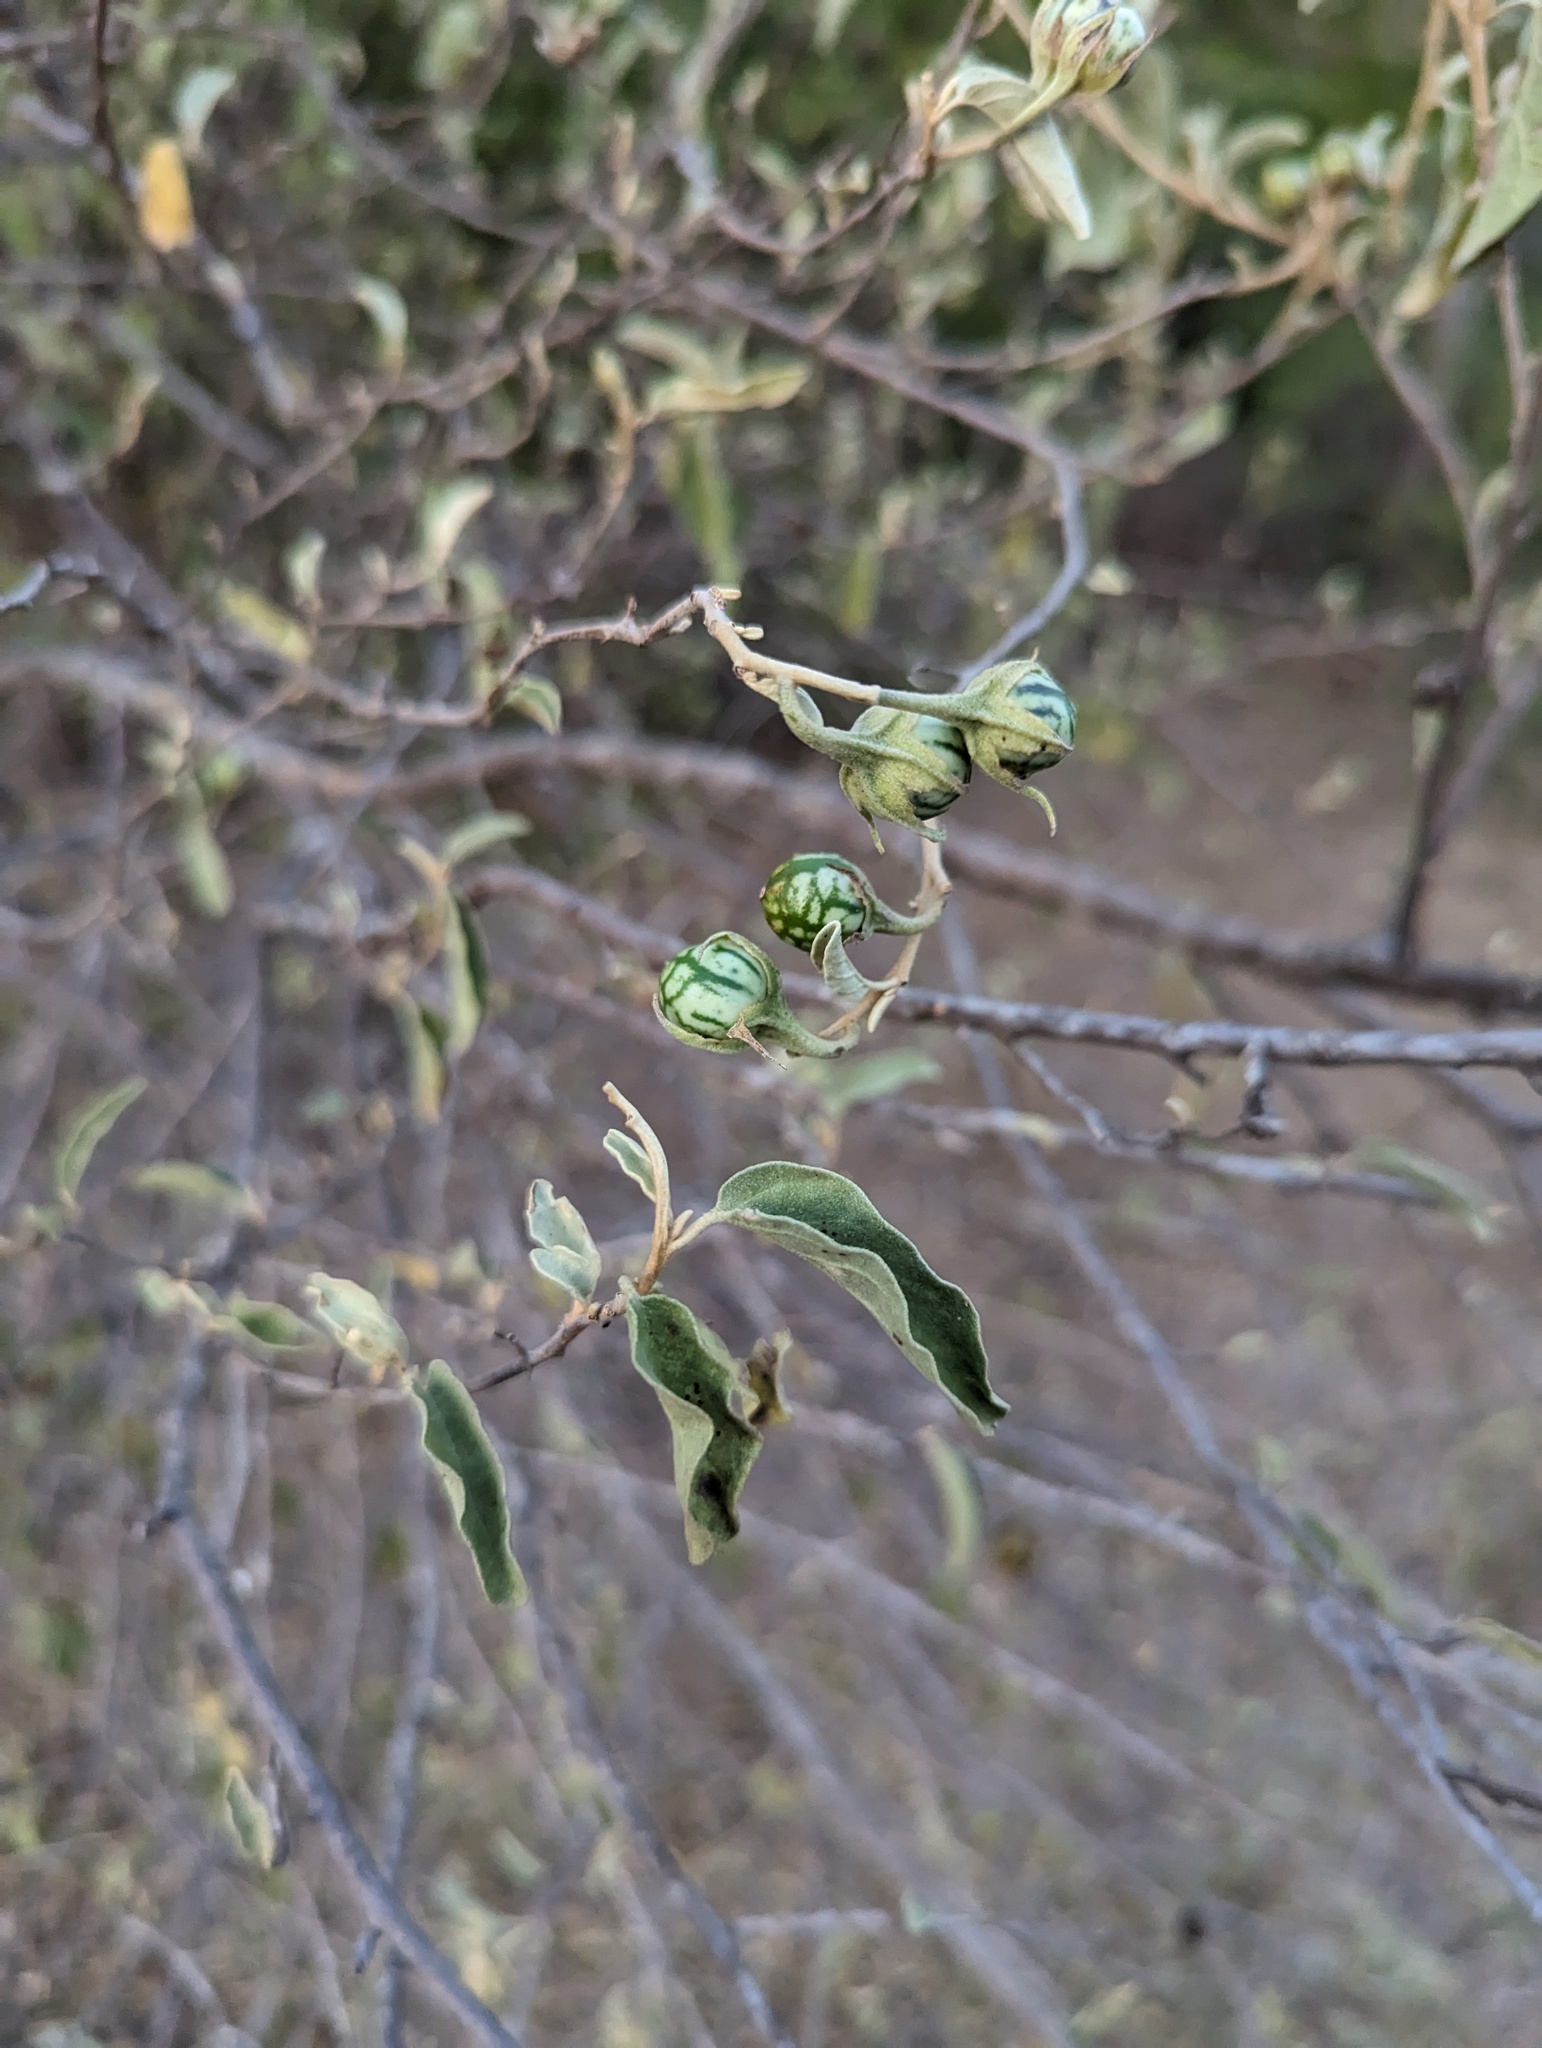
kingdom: Plantae
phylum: Tracheophyta
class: Magnoliopsida
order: Solanales
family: Solanaceae
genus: Solanum
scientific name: Solanum hindsianum
